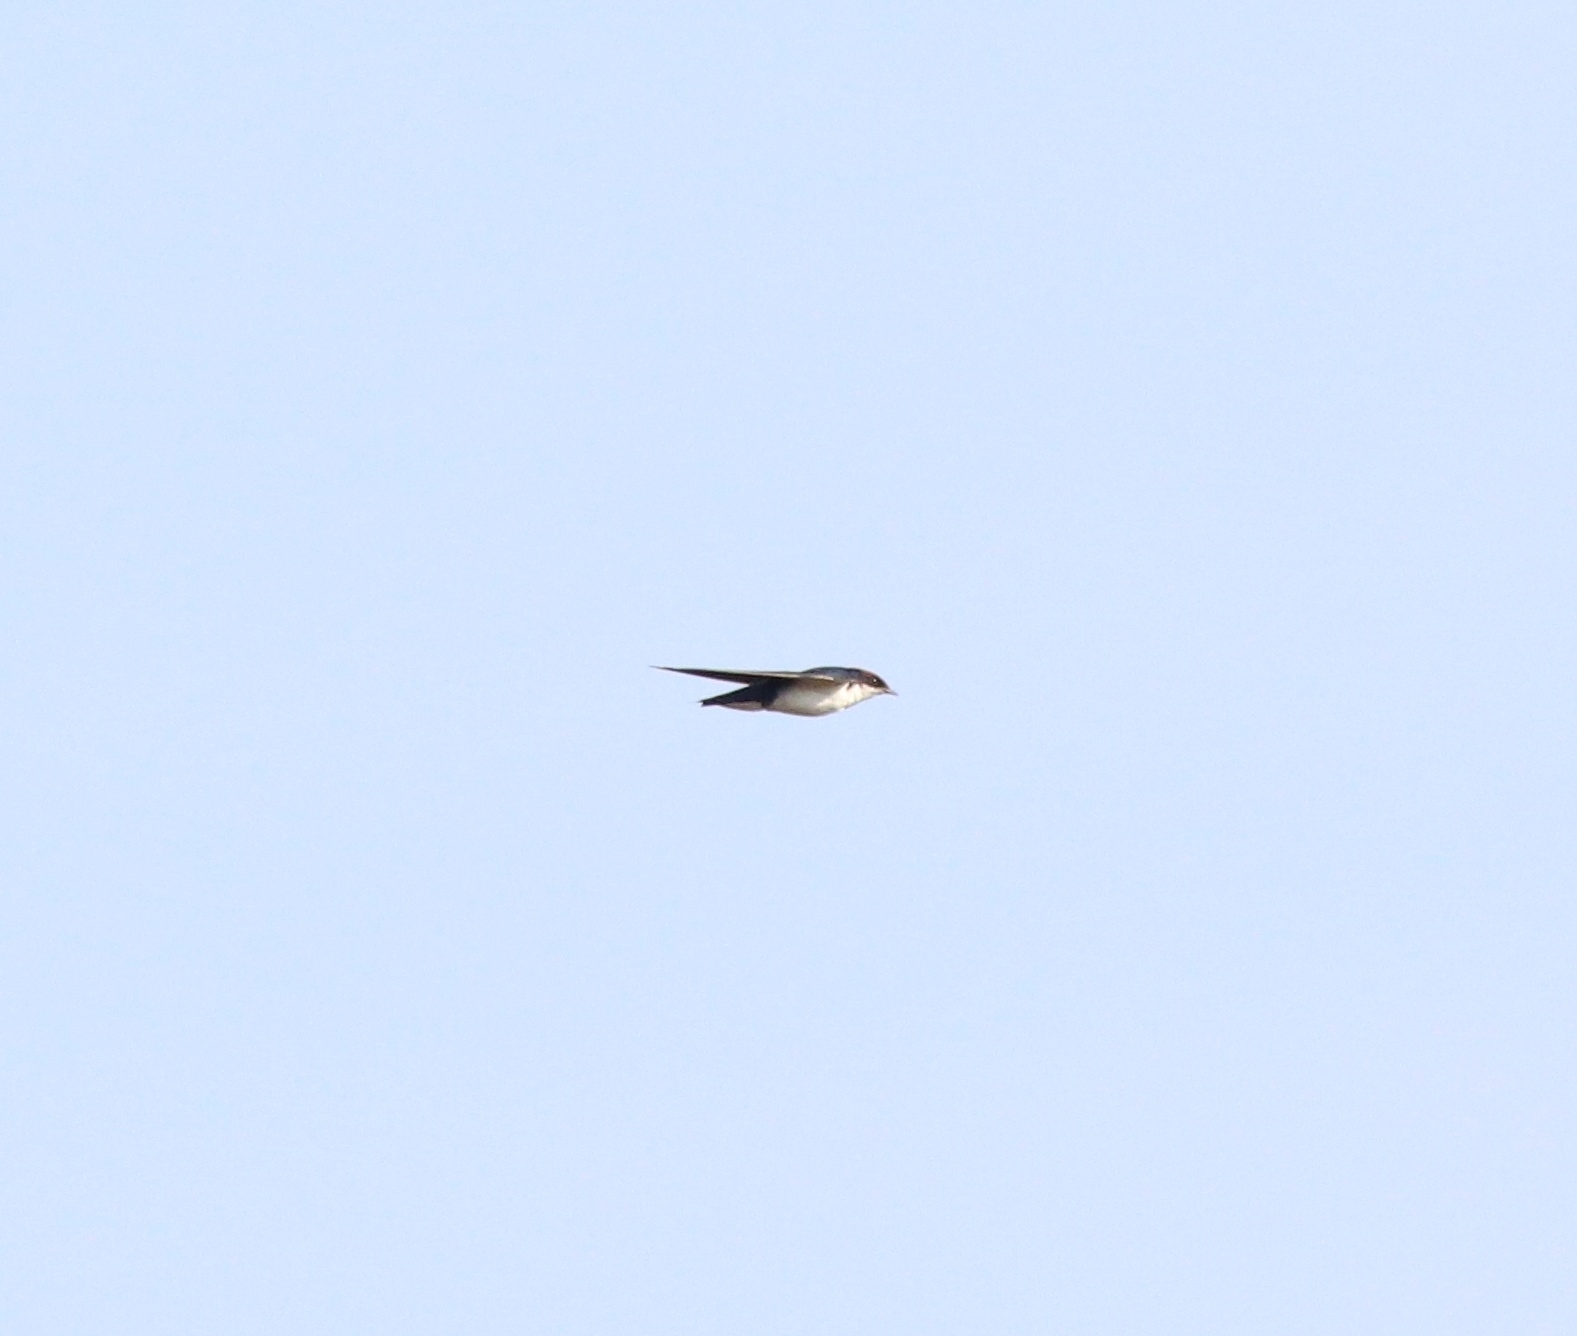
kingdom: Animalia
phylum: Chordata
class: Aves
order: Passeriformes
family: Hirundinidae
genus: Hirundo
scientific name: Hirundo smithii
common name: Wire-tailed swallow
